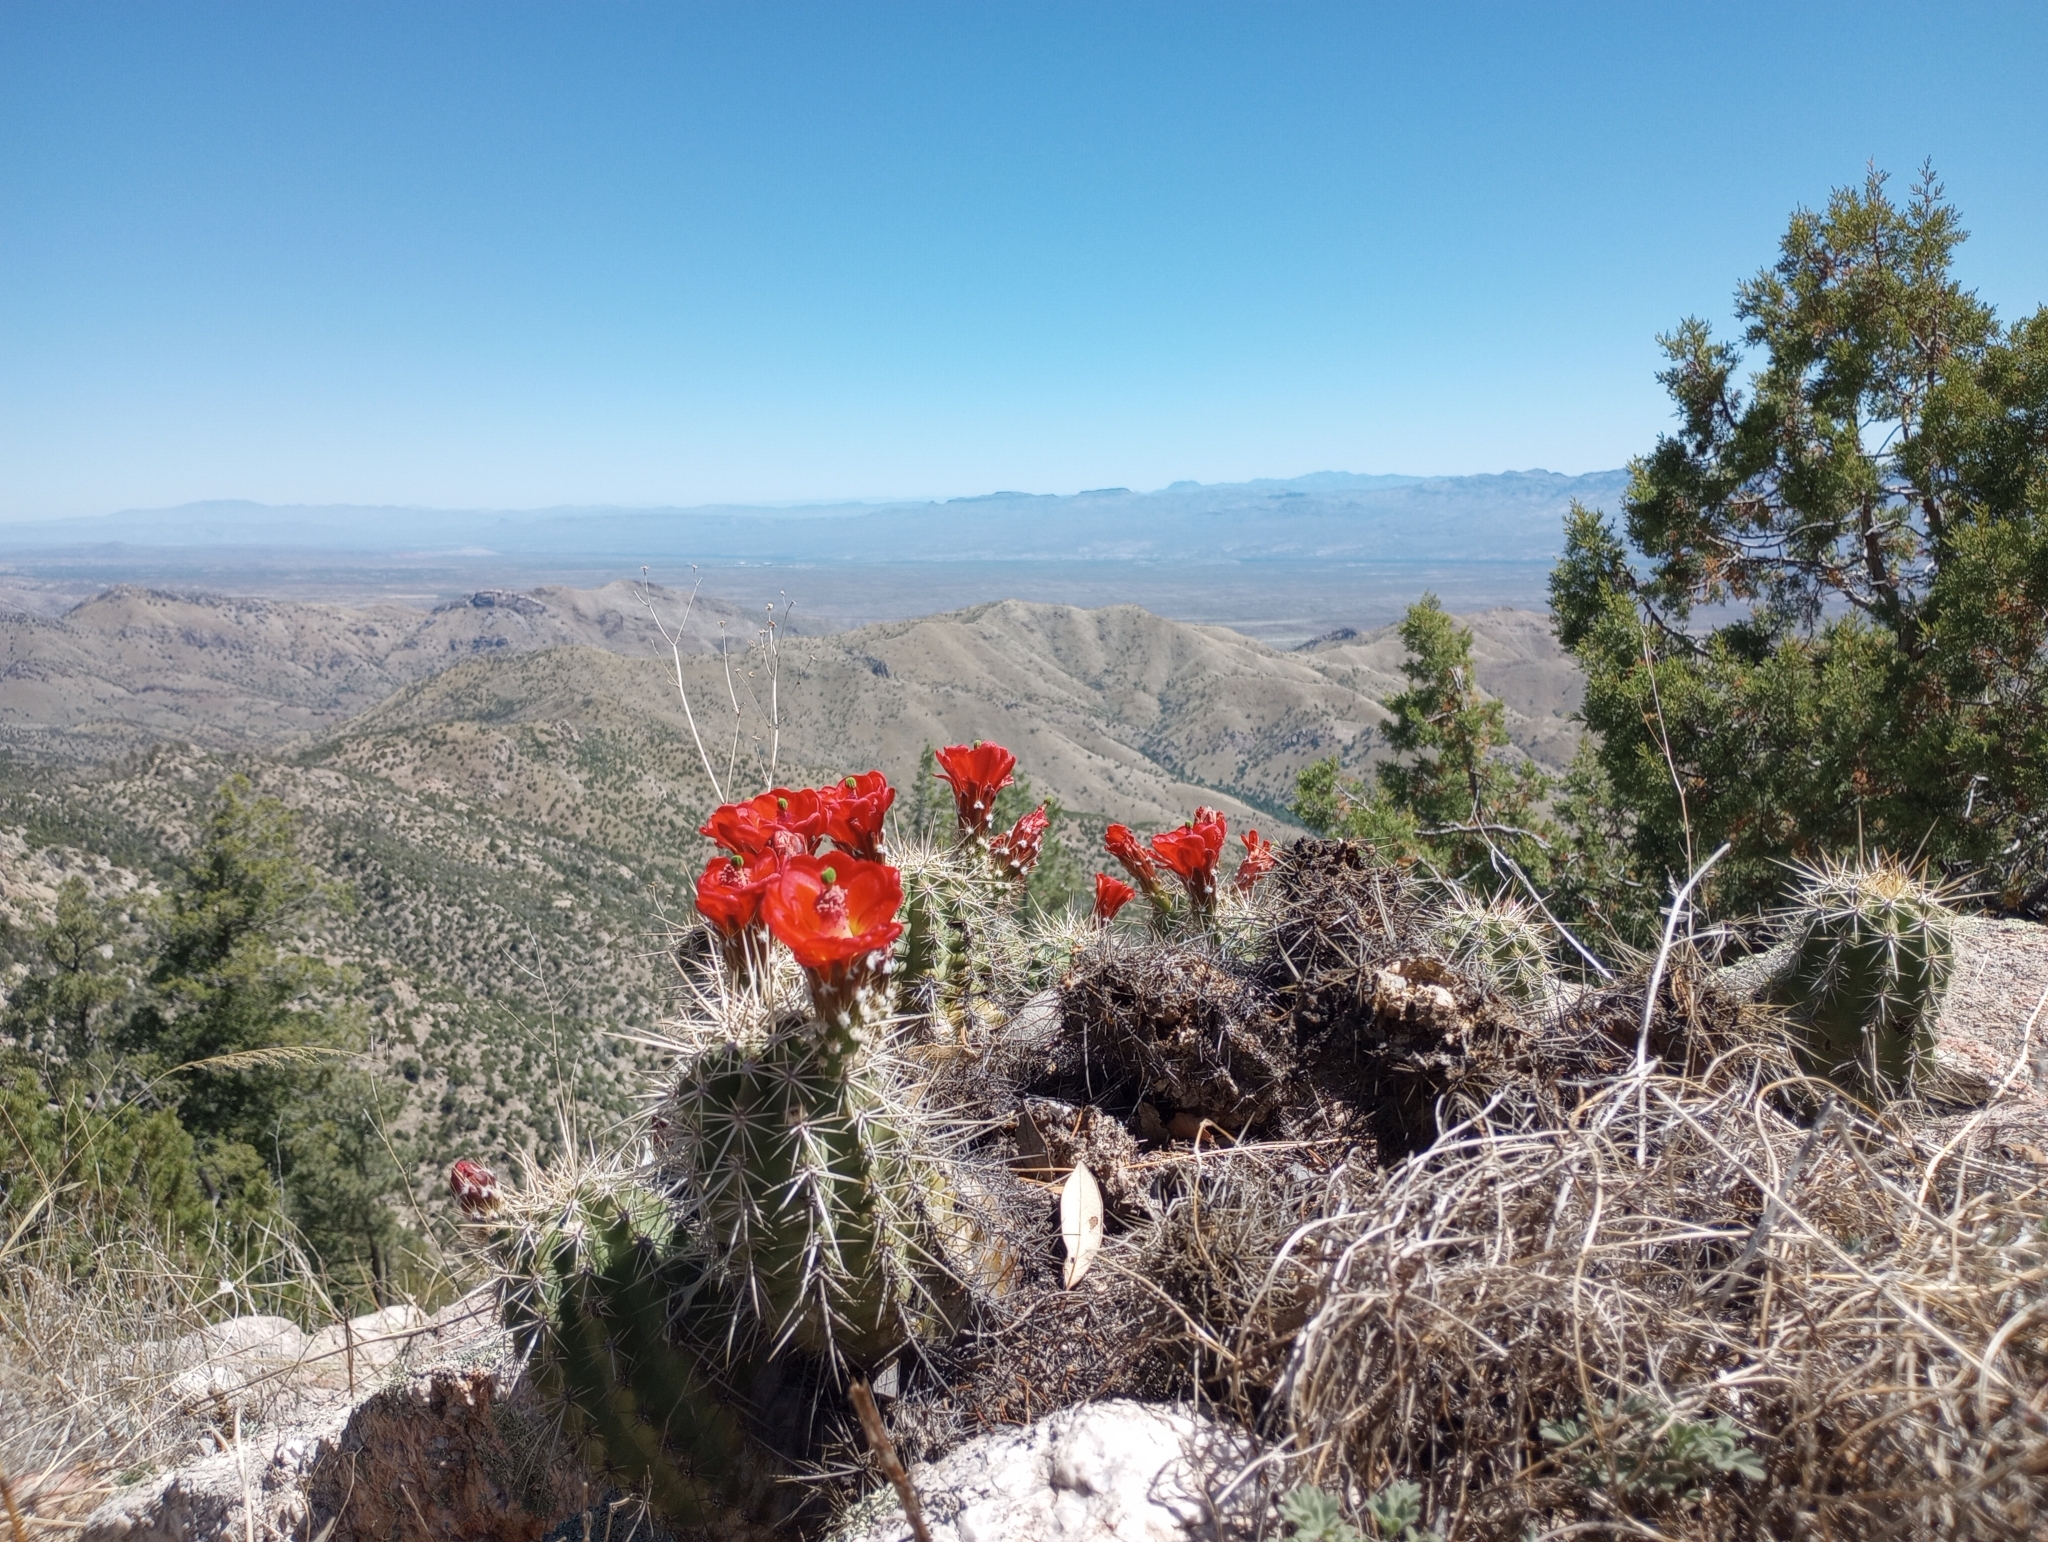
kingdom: Plantae
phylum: Tracheophyta
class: Magnoliopsida
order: Caryophyllales
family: Cactaceae
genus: Echinocereus
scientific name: Echinocereus coccineus
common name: Scarlet hedgehog cactus
